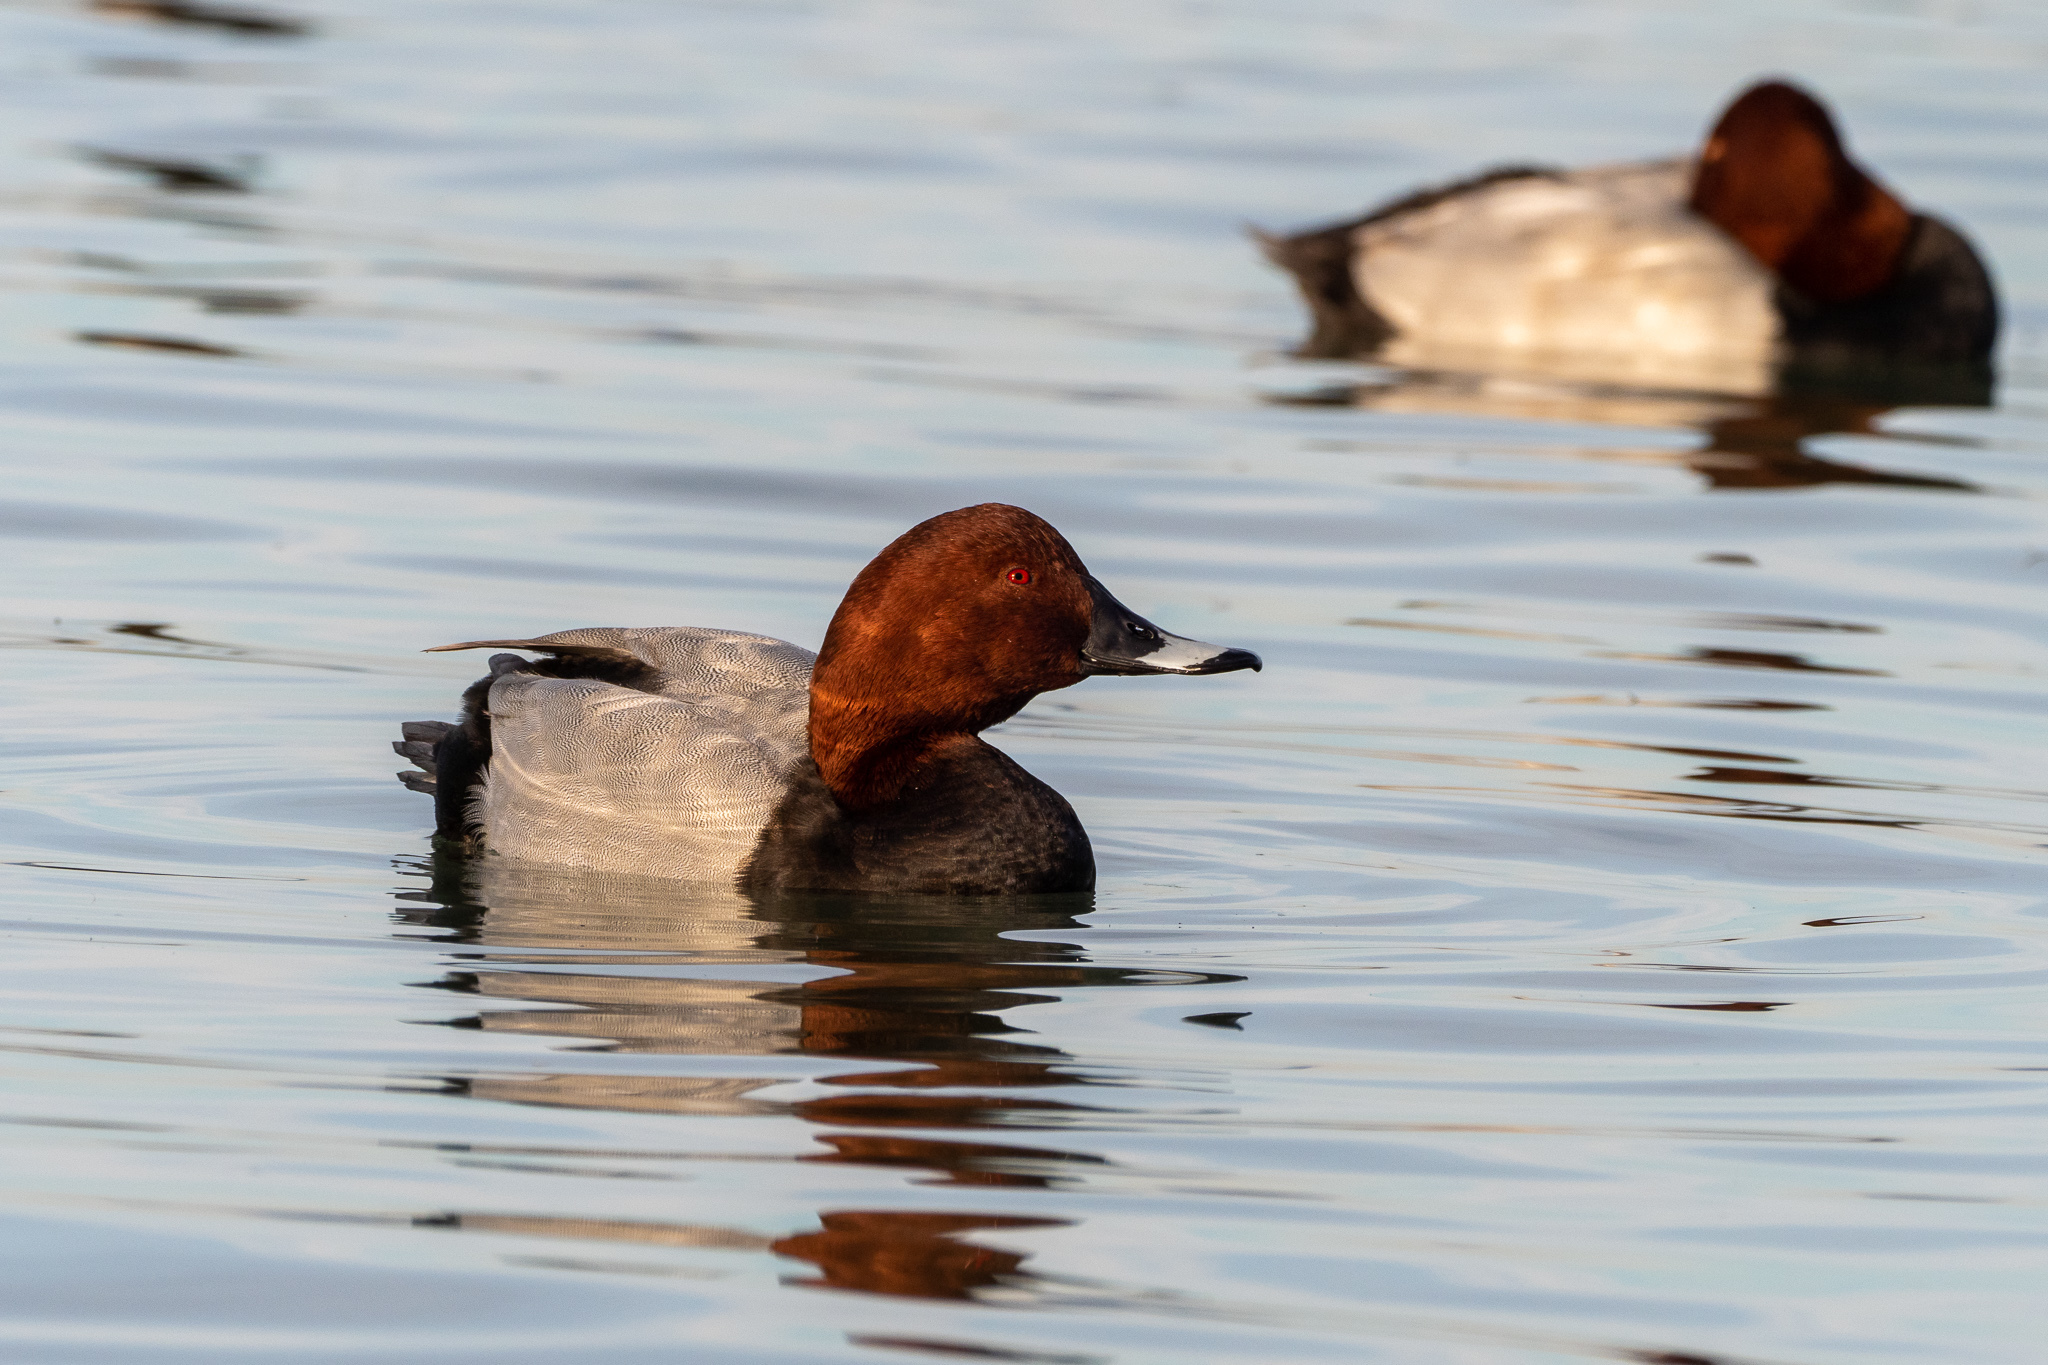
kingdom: Animalia
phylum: Chordata
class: Aves
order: Anseriformes
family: Anatidae
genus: Aythya
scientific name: Aythya ferina
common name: Common pochard
